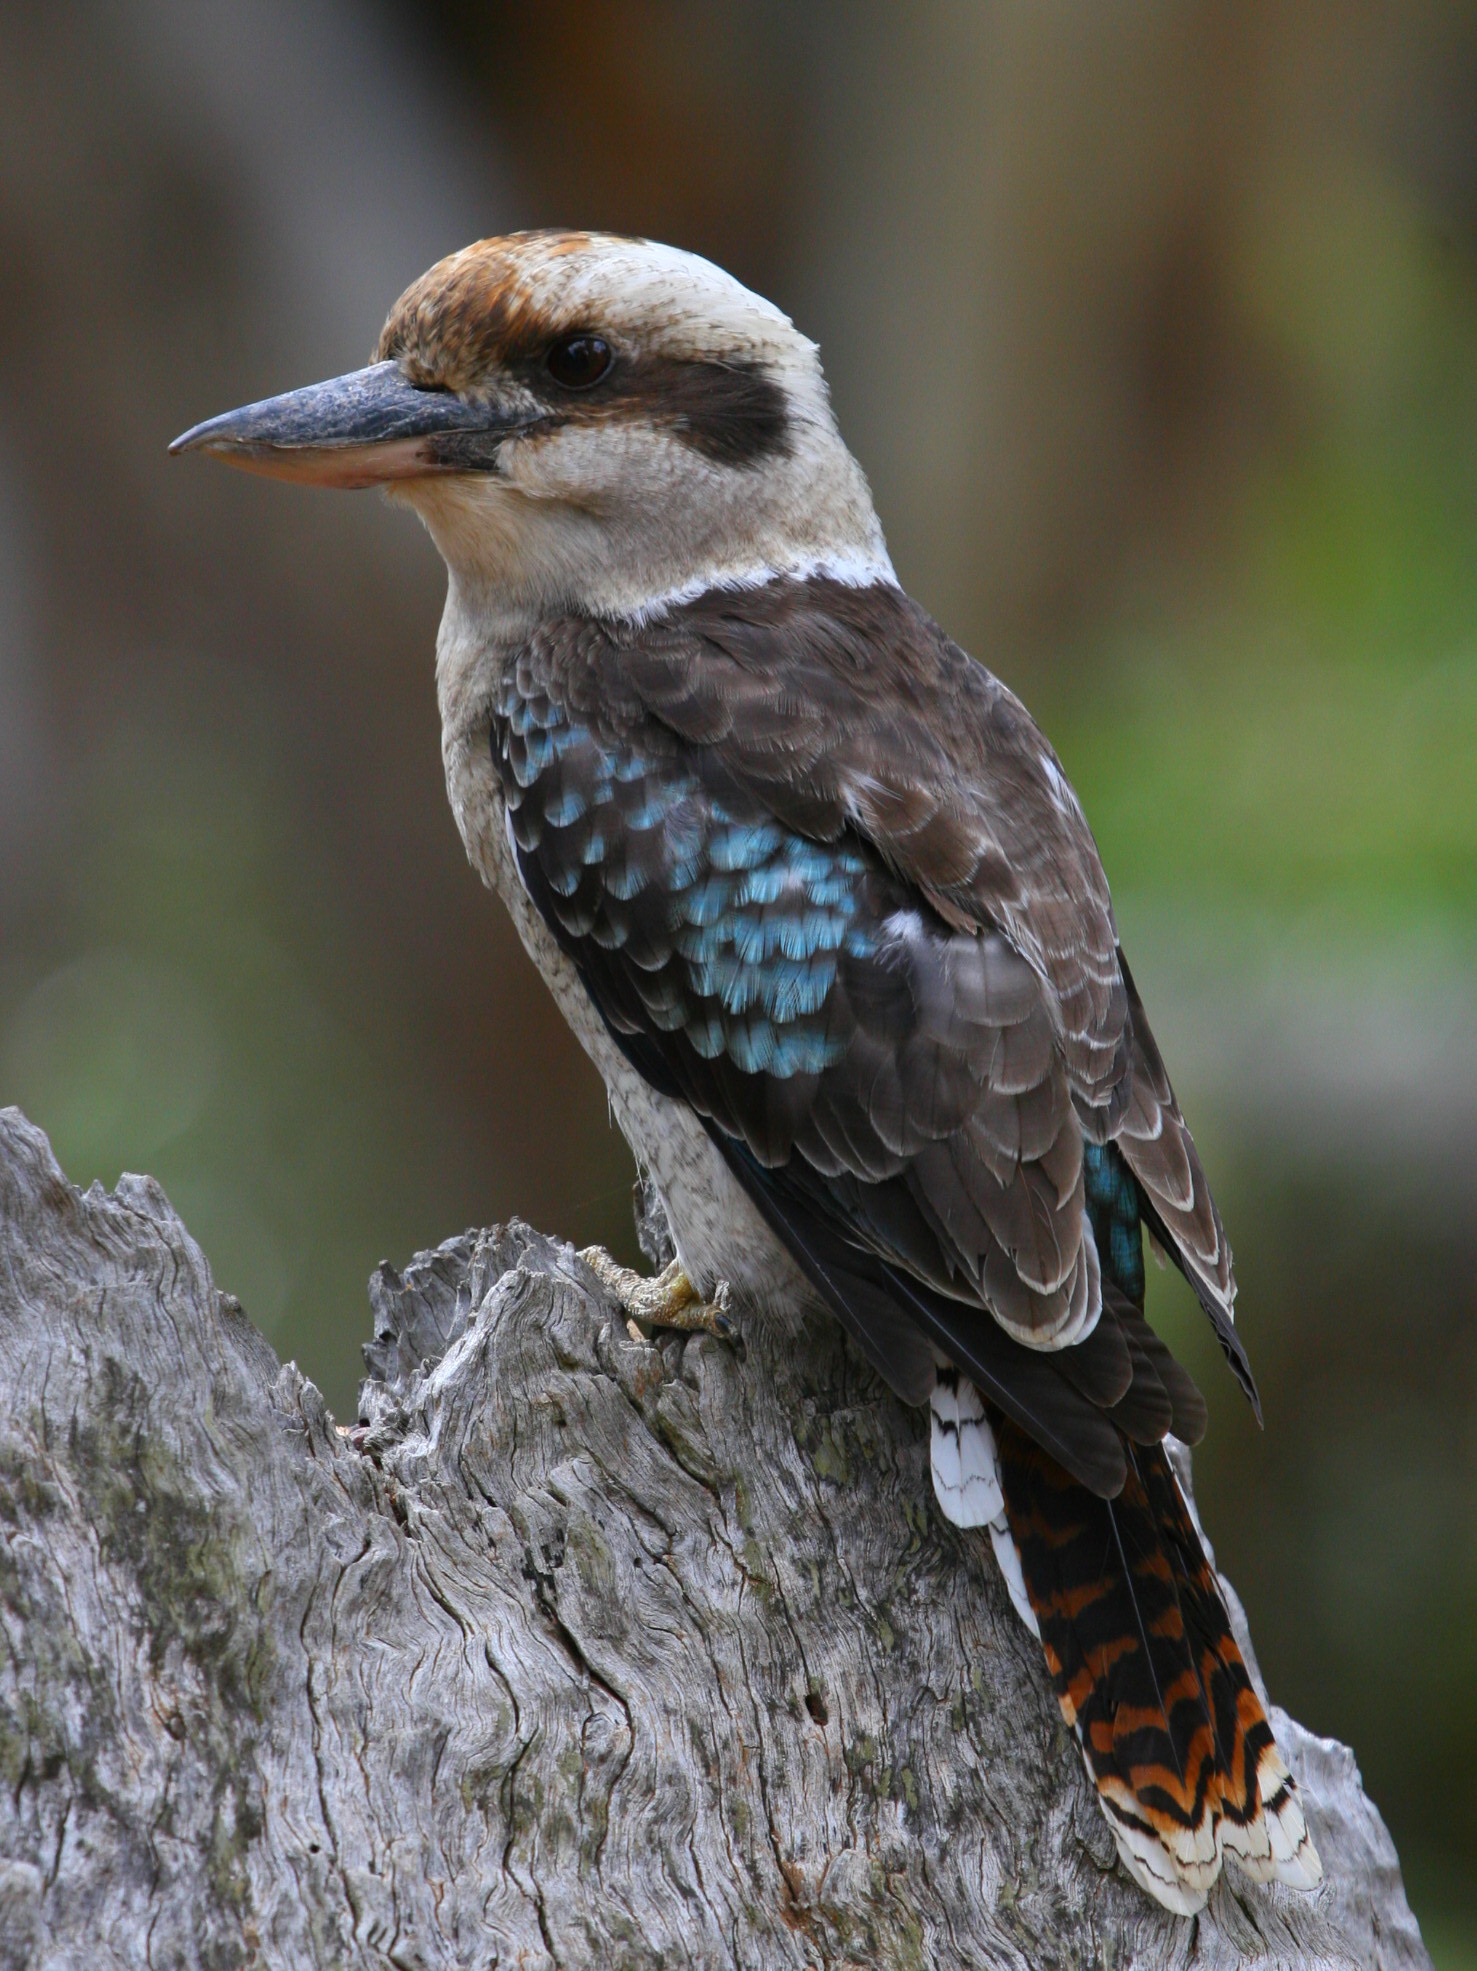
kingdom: Animalia
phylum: Chordata
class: Aves
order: Coraciiformes
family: Alcedinidae
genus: Dacelo
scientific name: Dacelo novaeguineae
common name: Laughing kookaburra
